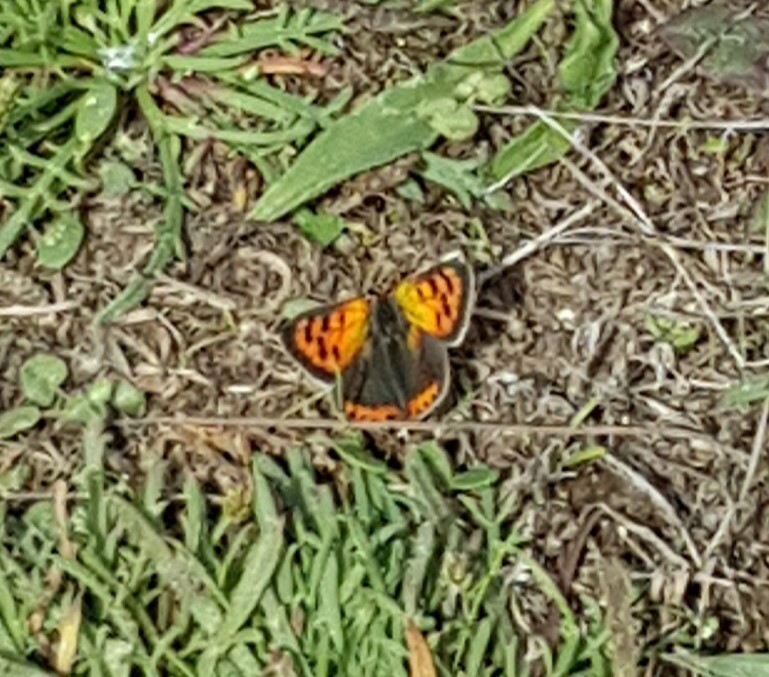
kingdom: Animalia
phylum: Arthropoda
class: Insecta
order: Lepidoptera
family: Lycaenidae
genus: Lycaena
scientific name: Lycaena phlaeas
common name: Small copper
